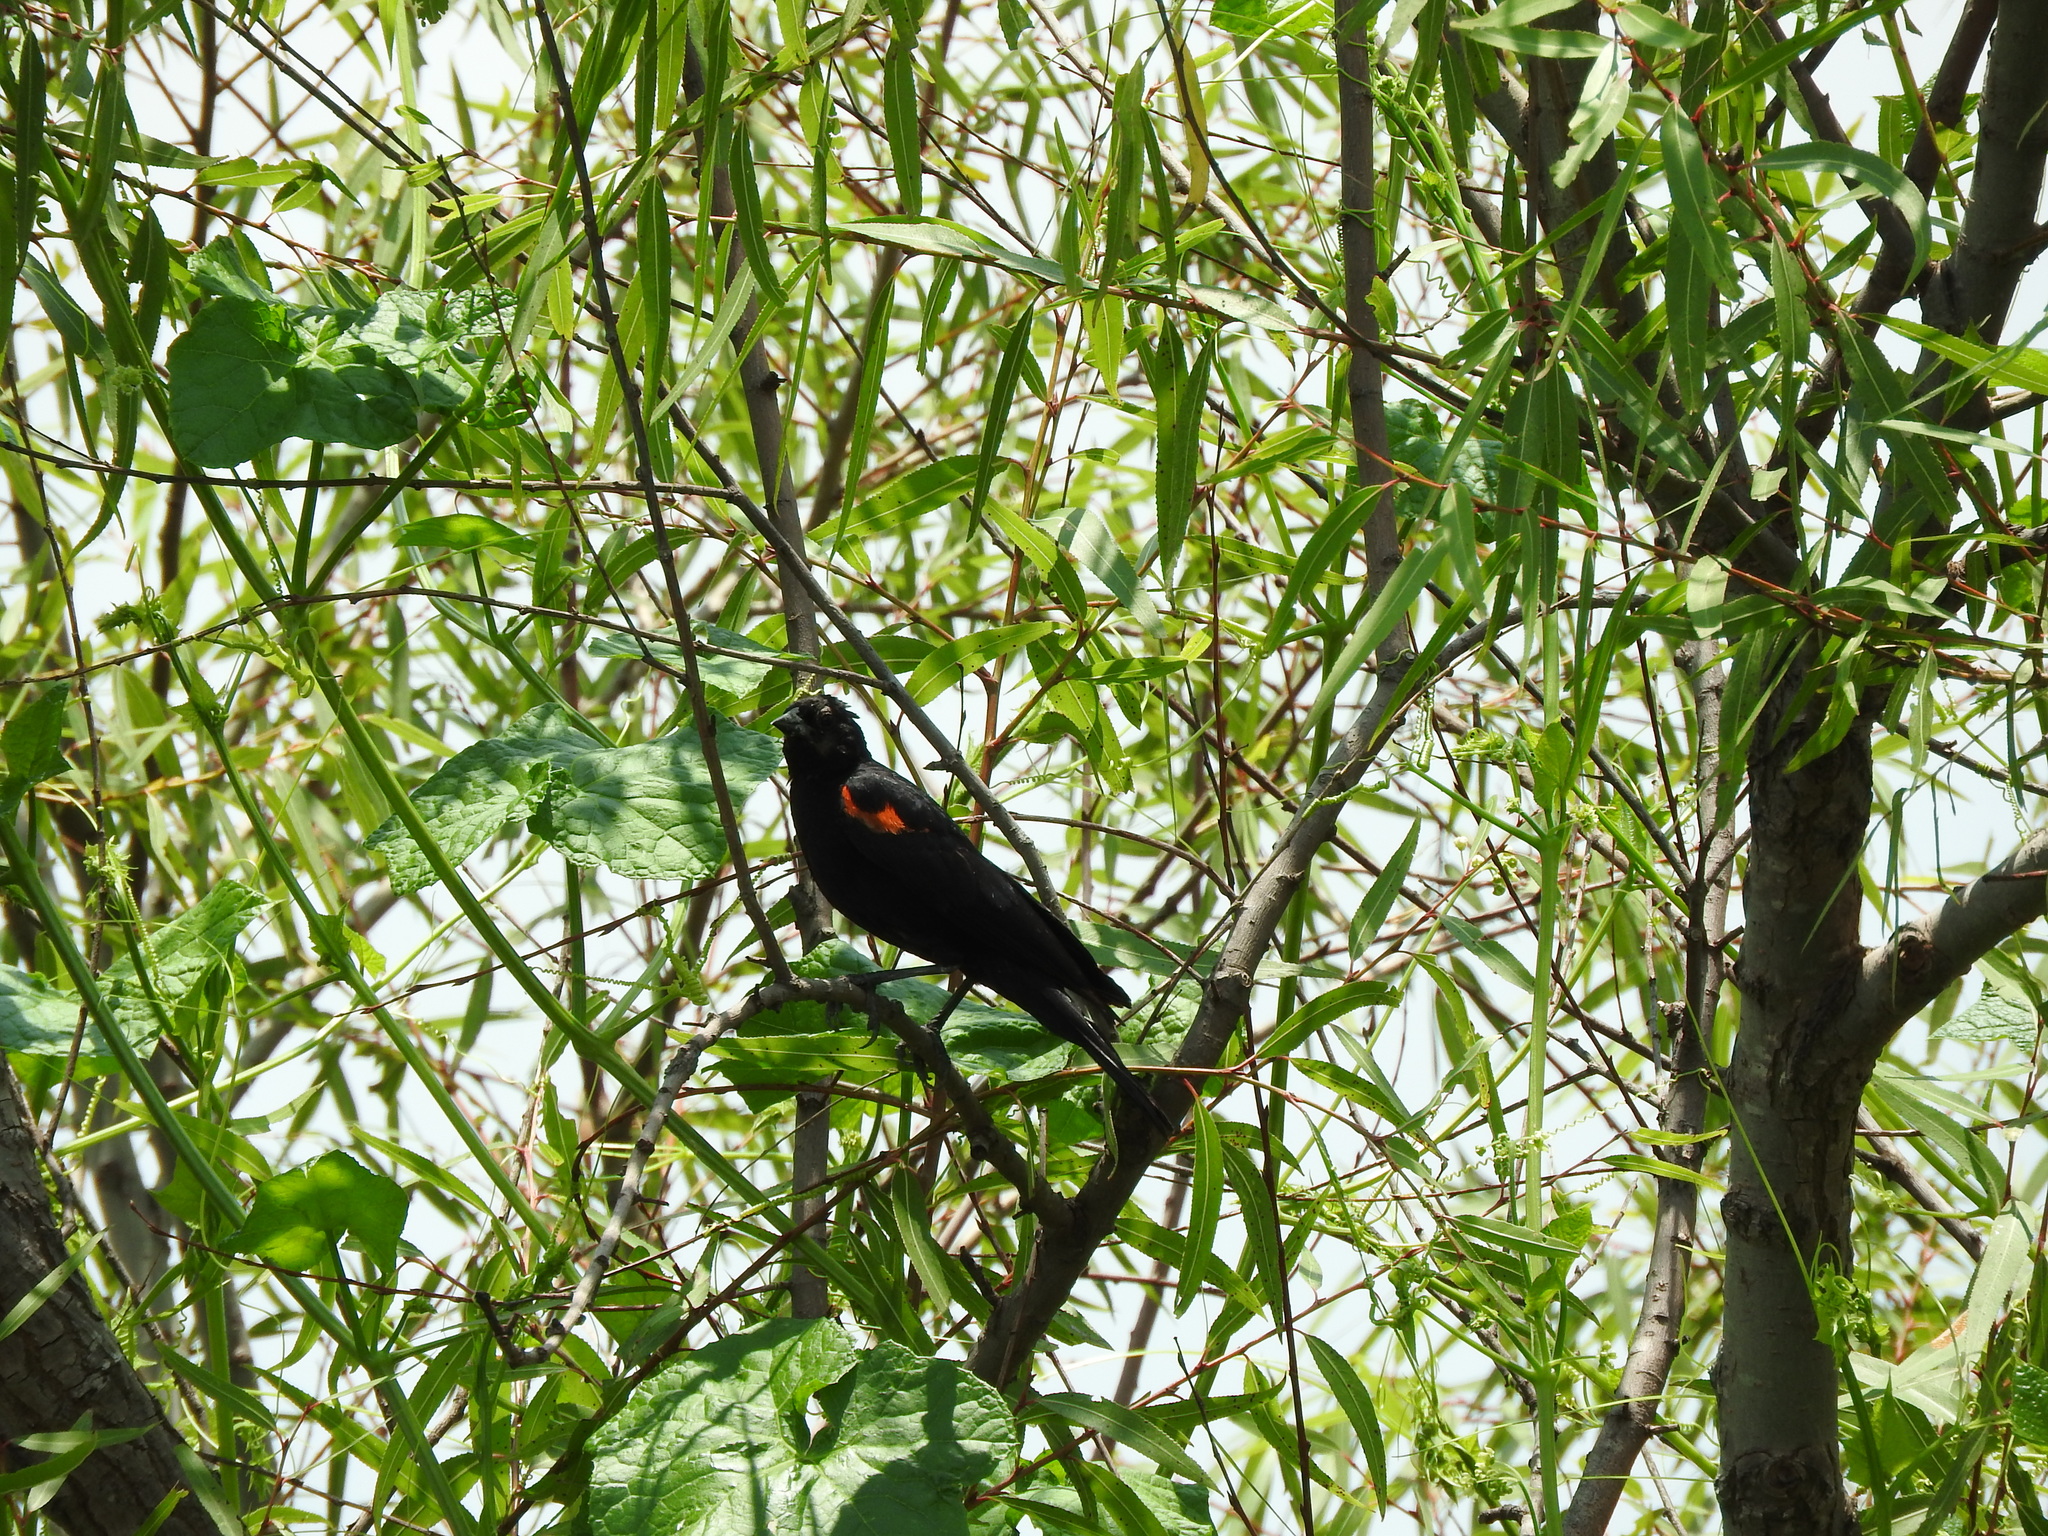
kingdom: Animalia
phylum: Chordata
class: Aves
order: Passeriformes
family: Icteridae
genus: Agelaius
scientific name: Agelaius phoeniceus
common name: Red-winged blackbird
